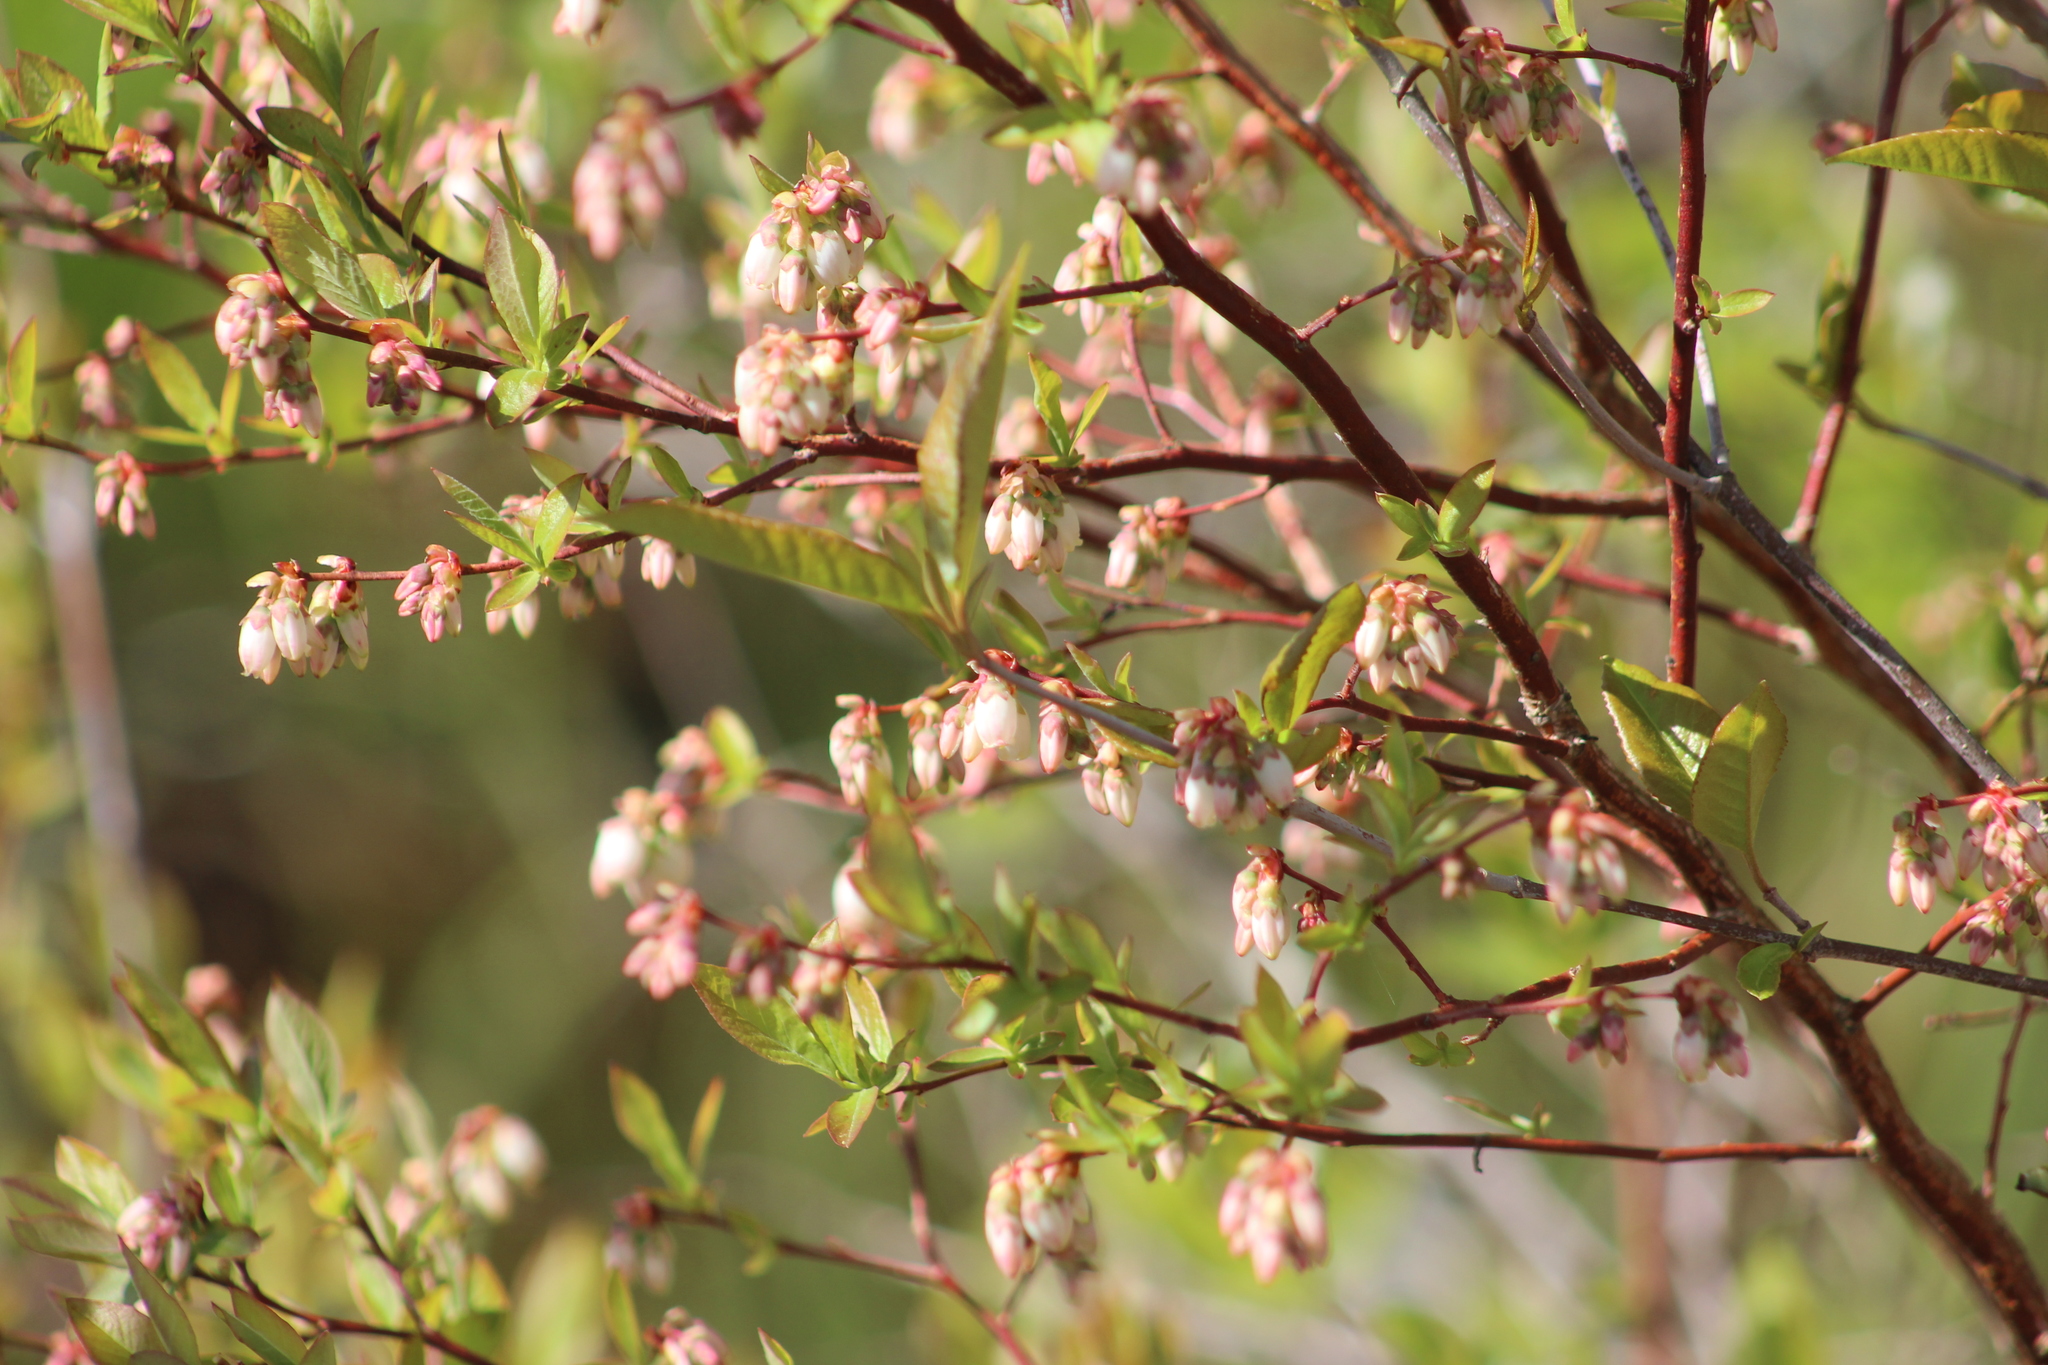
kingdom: Plantae
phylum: Tracheophyta
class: Magnoliopsida
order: Ericales
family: Ericaceae
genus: Vaccinium
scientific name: Vaccinium corymbosum
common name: Blueberry
